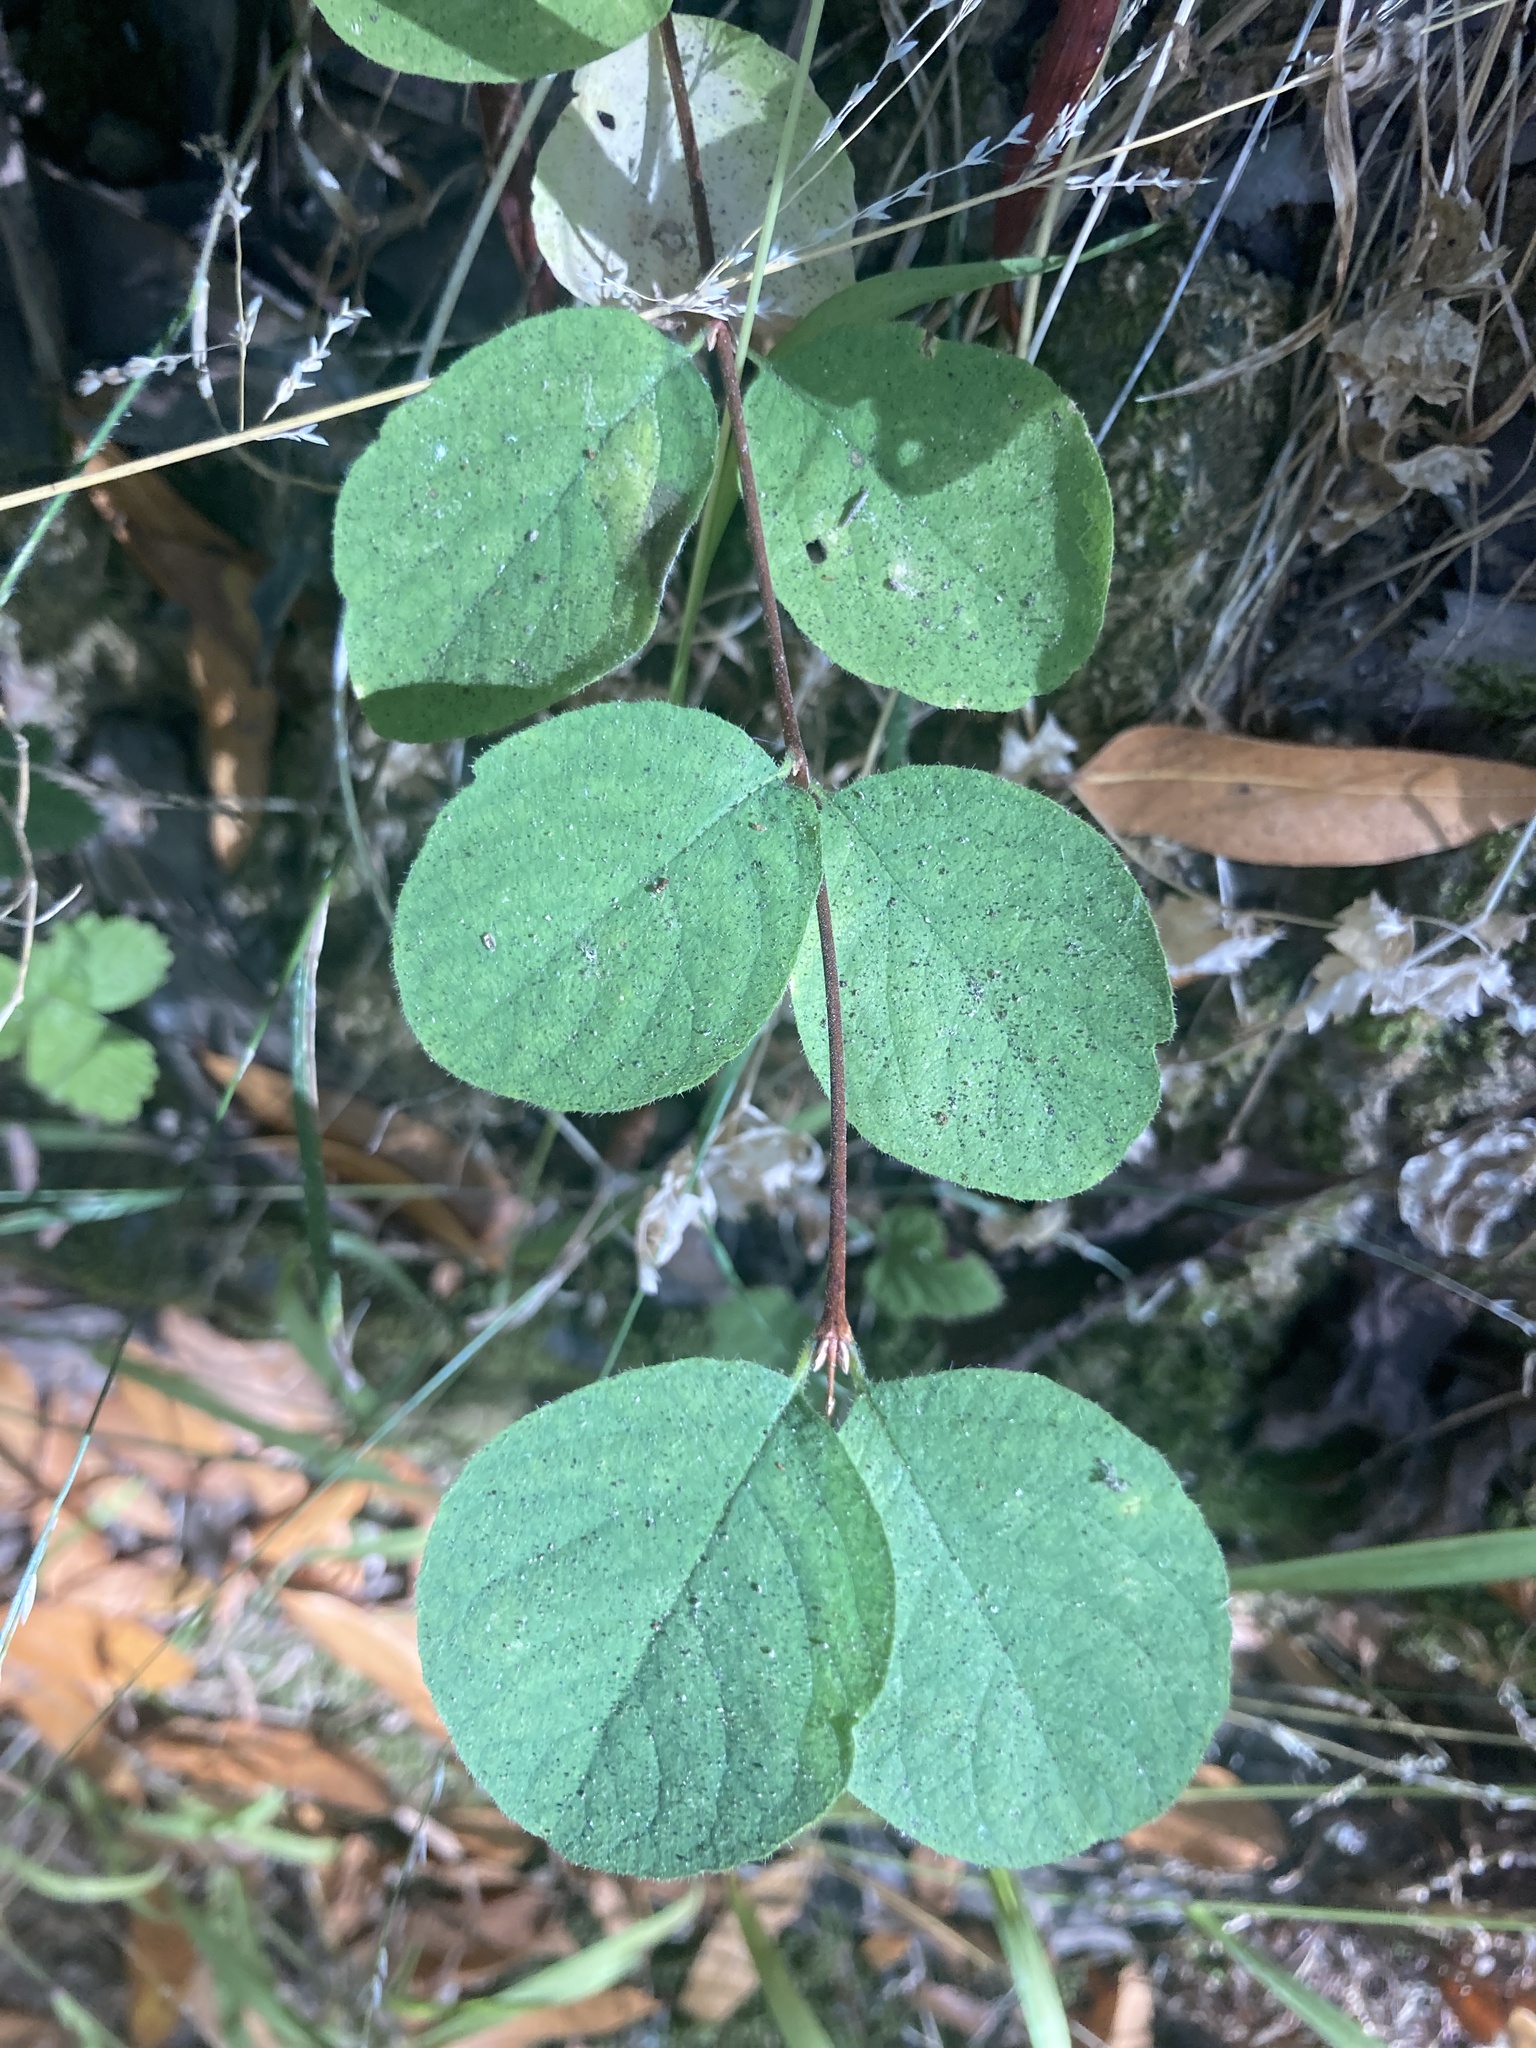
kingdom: Plantae
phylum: Tracheophyta
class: Magnoliopsida
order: Dipsacales
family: Caprifoliaceae
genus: Symphoricarpos
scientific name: Symphoricarpos mollis
